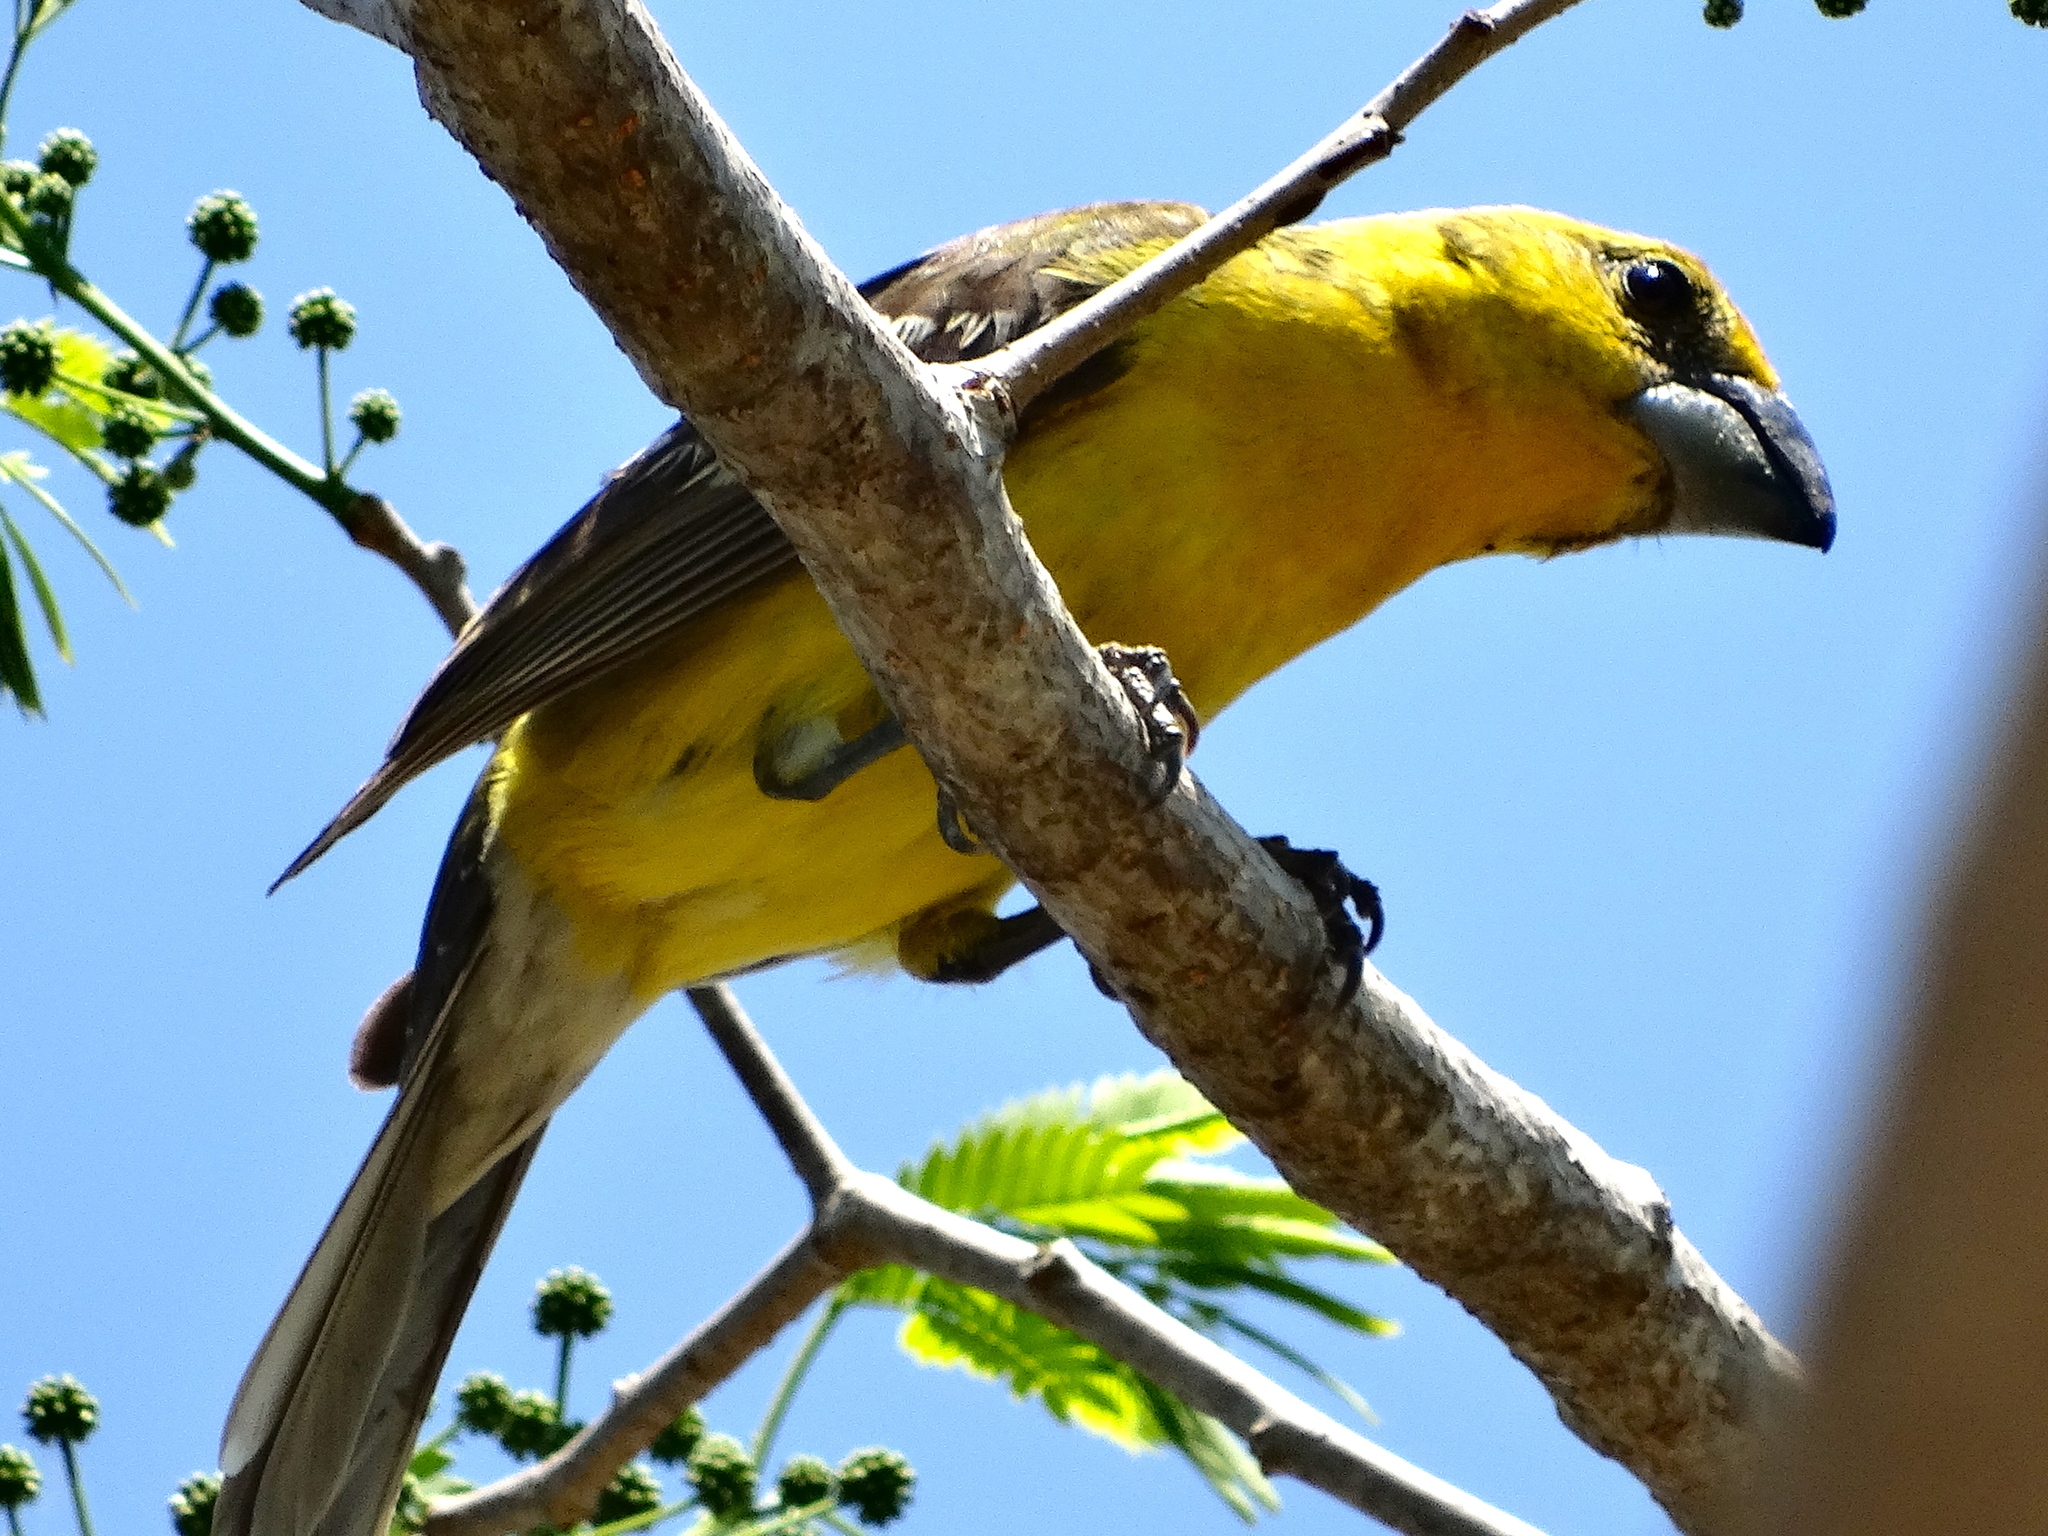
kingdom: Animalia
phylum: Chordata
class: Aves
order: Passeriformes
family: Cardinalidae
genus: Pheucticus
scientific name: Pheucticus chrysopeplus
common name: Yellow grosbeak
